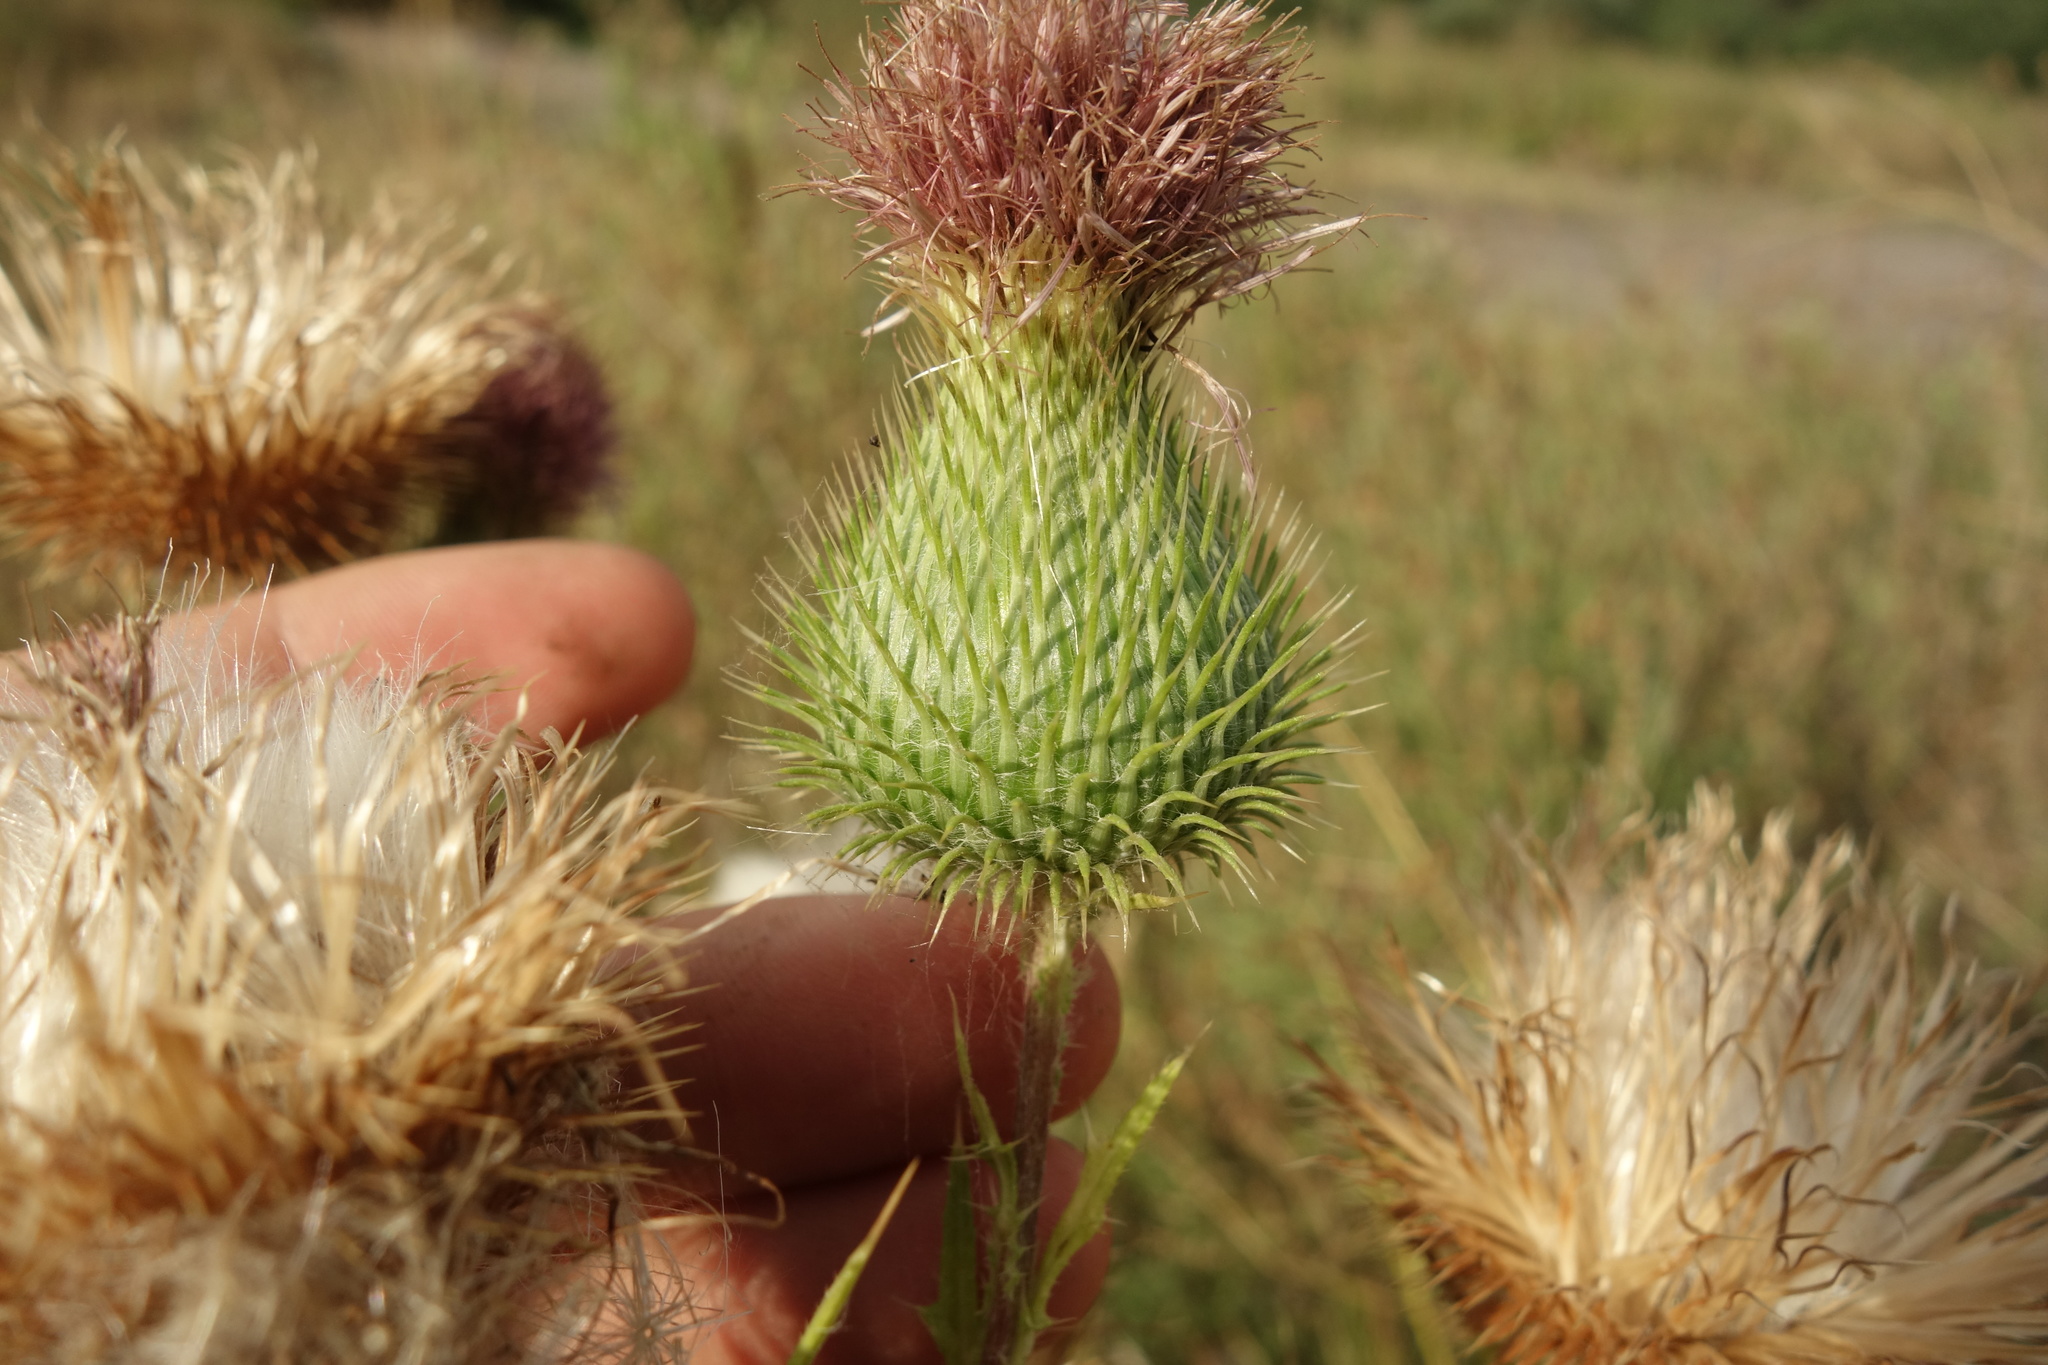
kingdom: Plantae
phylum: Tracheophyta
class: Magnoliopsida
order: Asterales
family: Asteraceae
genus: Cirsium
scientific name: Cirsium vulgare
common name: Bull thistle
